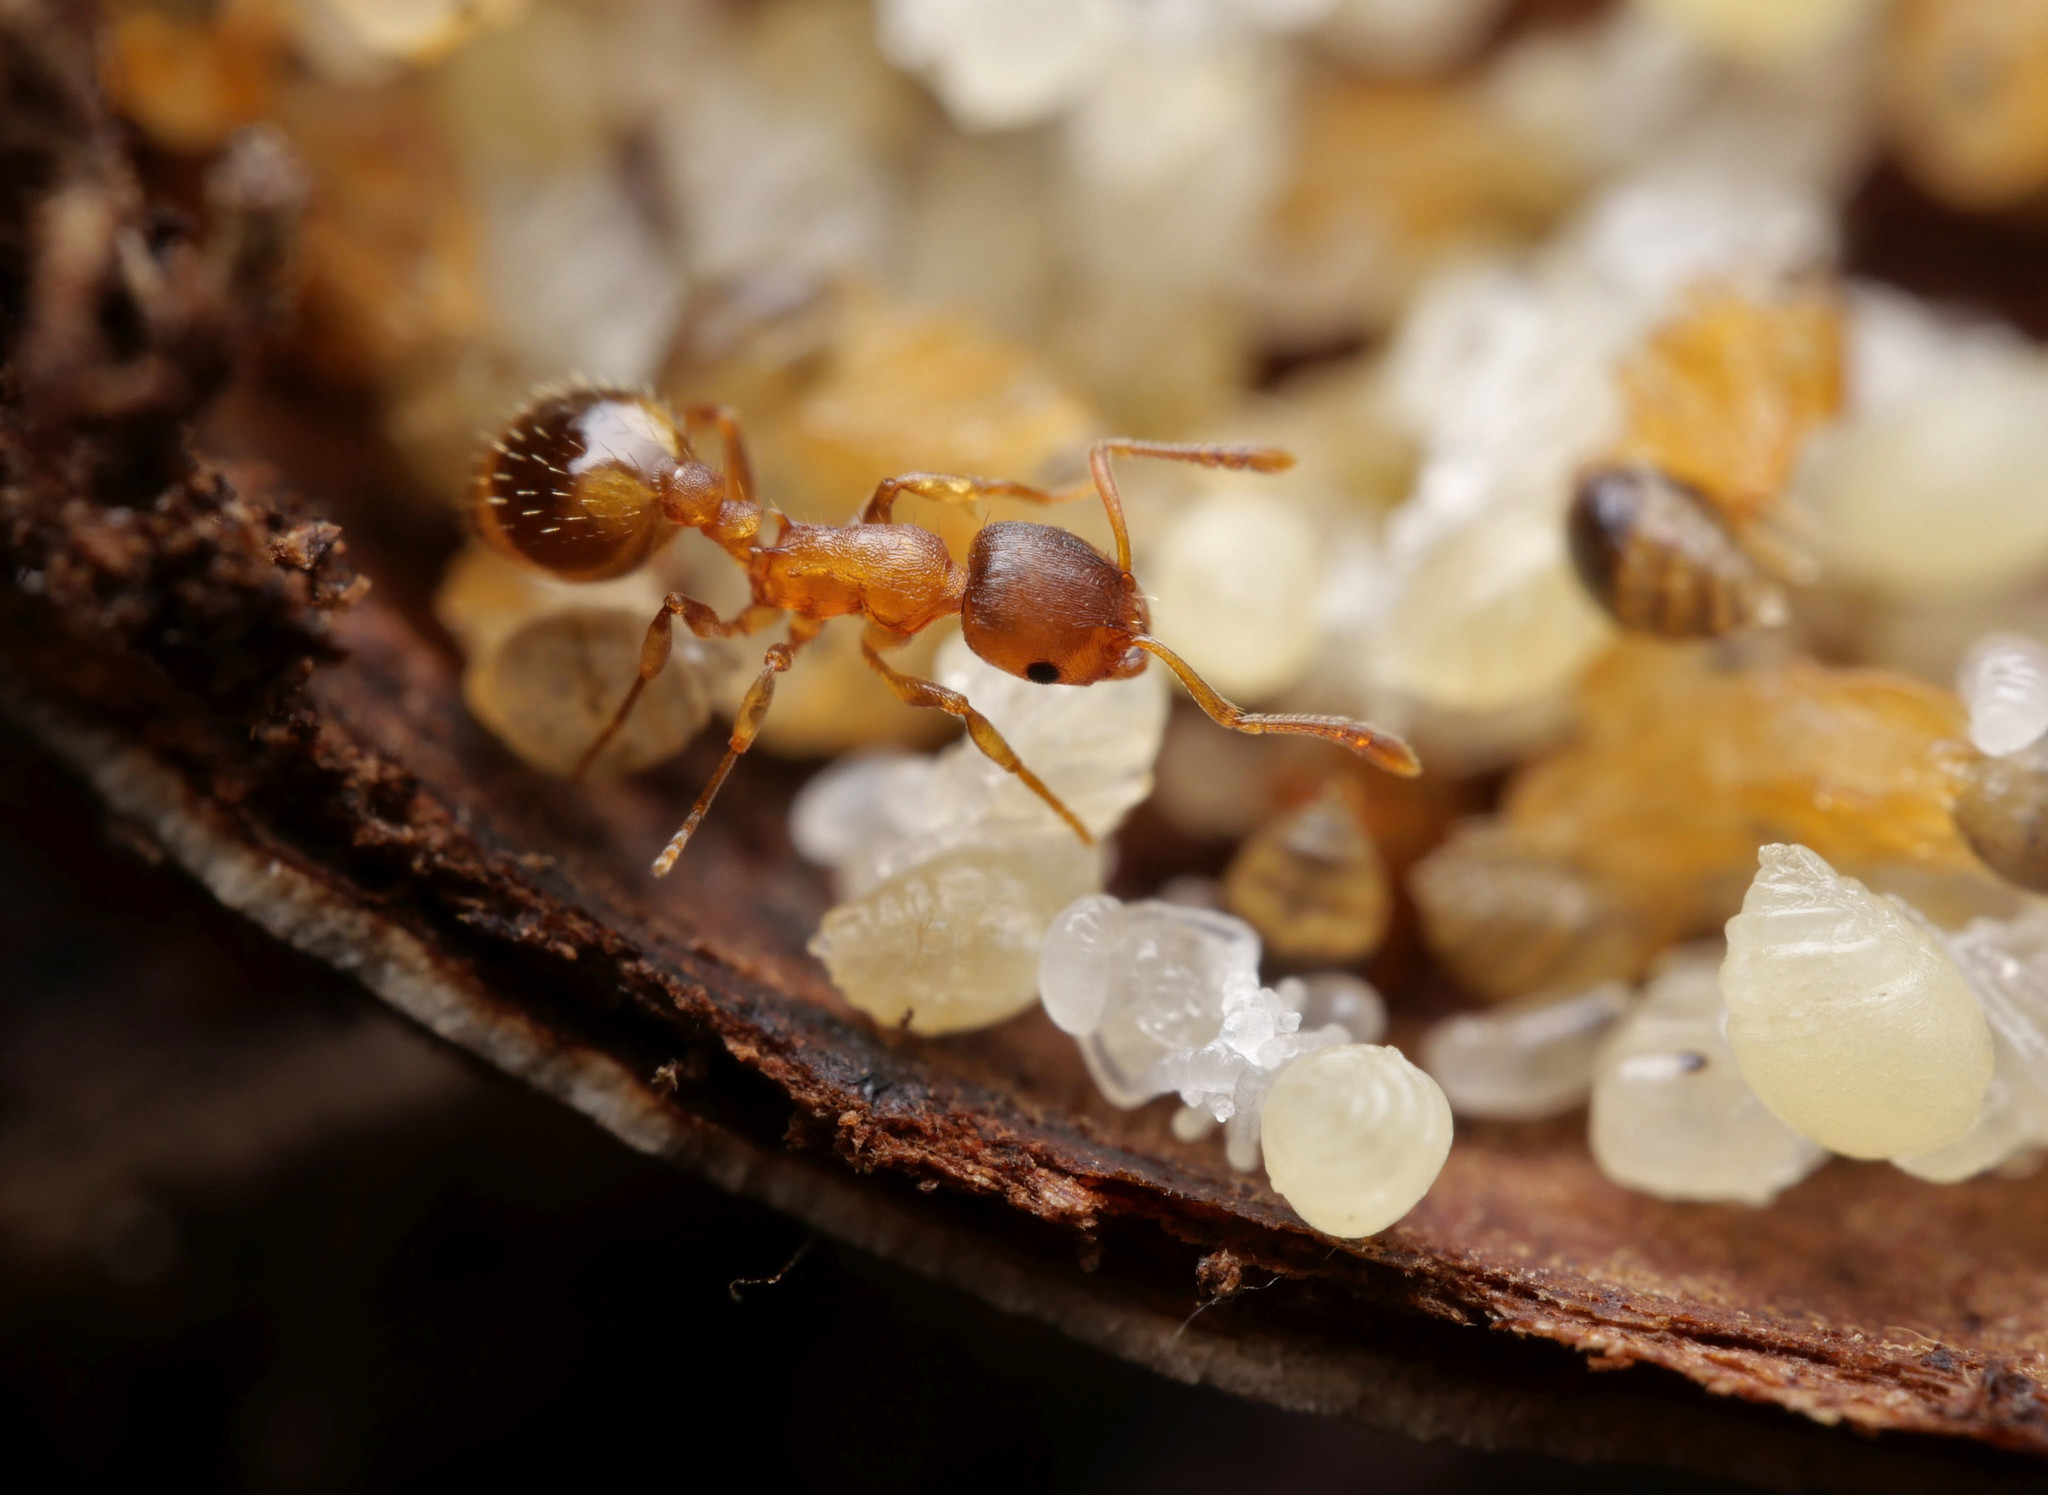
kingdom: Animalia
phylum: Arthropoda
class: Insecta
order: Hymenoptera
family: Formicidae
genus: Leptothorax
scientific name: Leptothorax nylanderi
